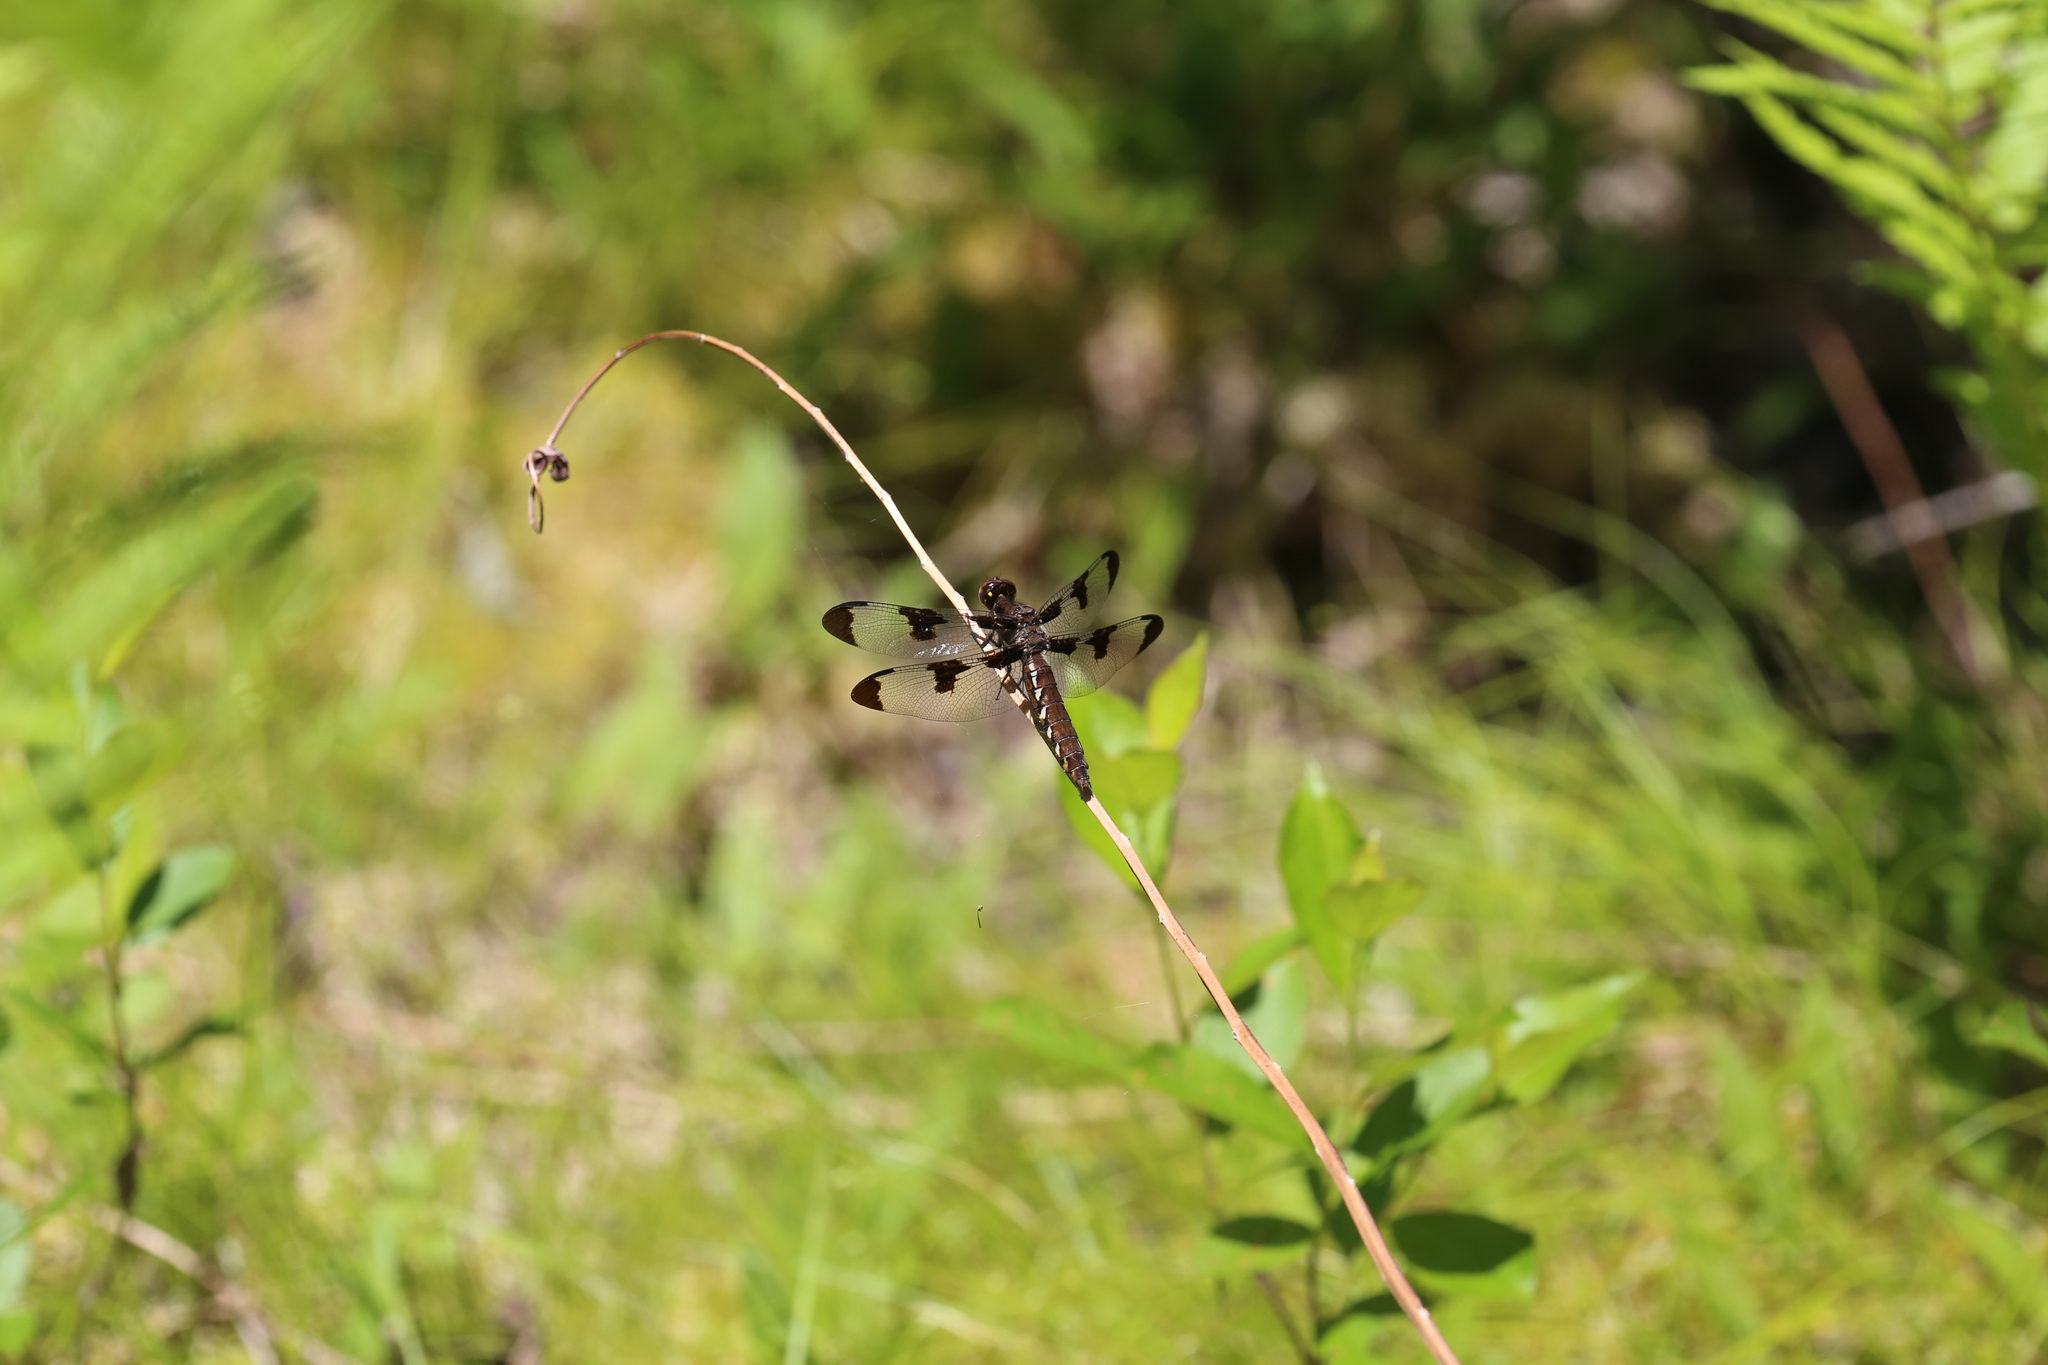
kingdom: Animalia
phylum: Arthropoda
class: Insecta
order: Odonata
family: Libellulidae
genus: Plathemis
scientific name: Plathemis lydia
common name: Common whitetail
